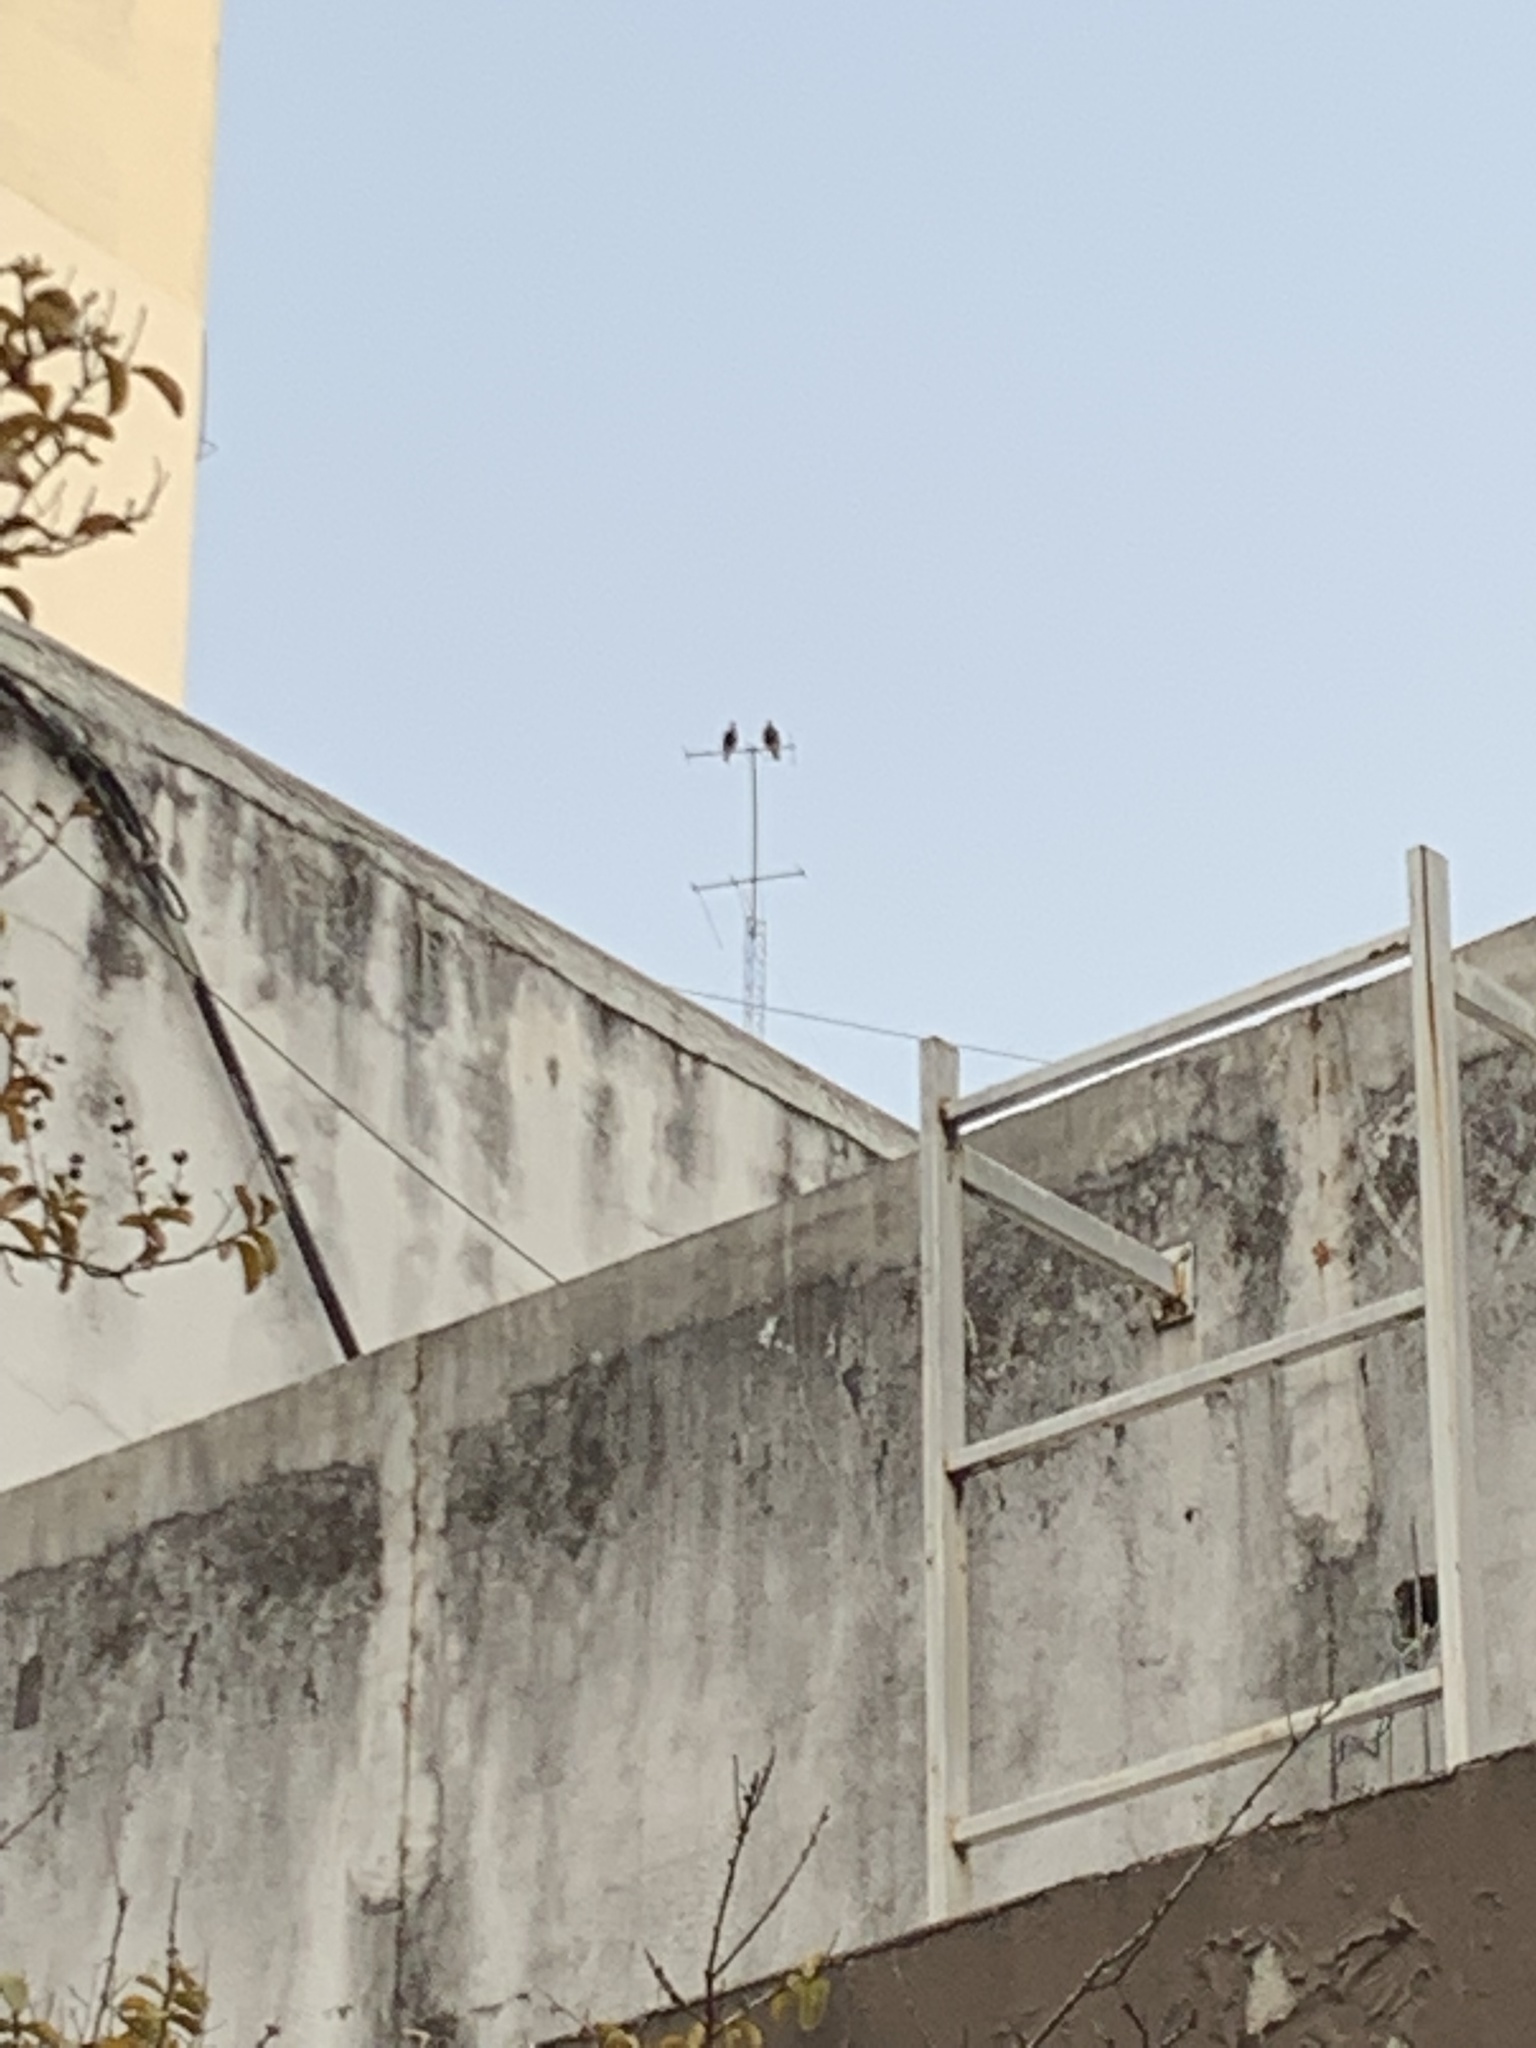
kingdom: Animalia
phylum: Chordata
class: Aves
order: Falconiformes
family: Falconidae
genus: Caracara
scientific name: Caracara plancus
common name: Southern caracara
